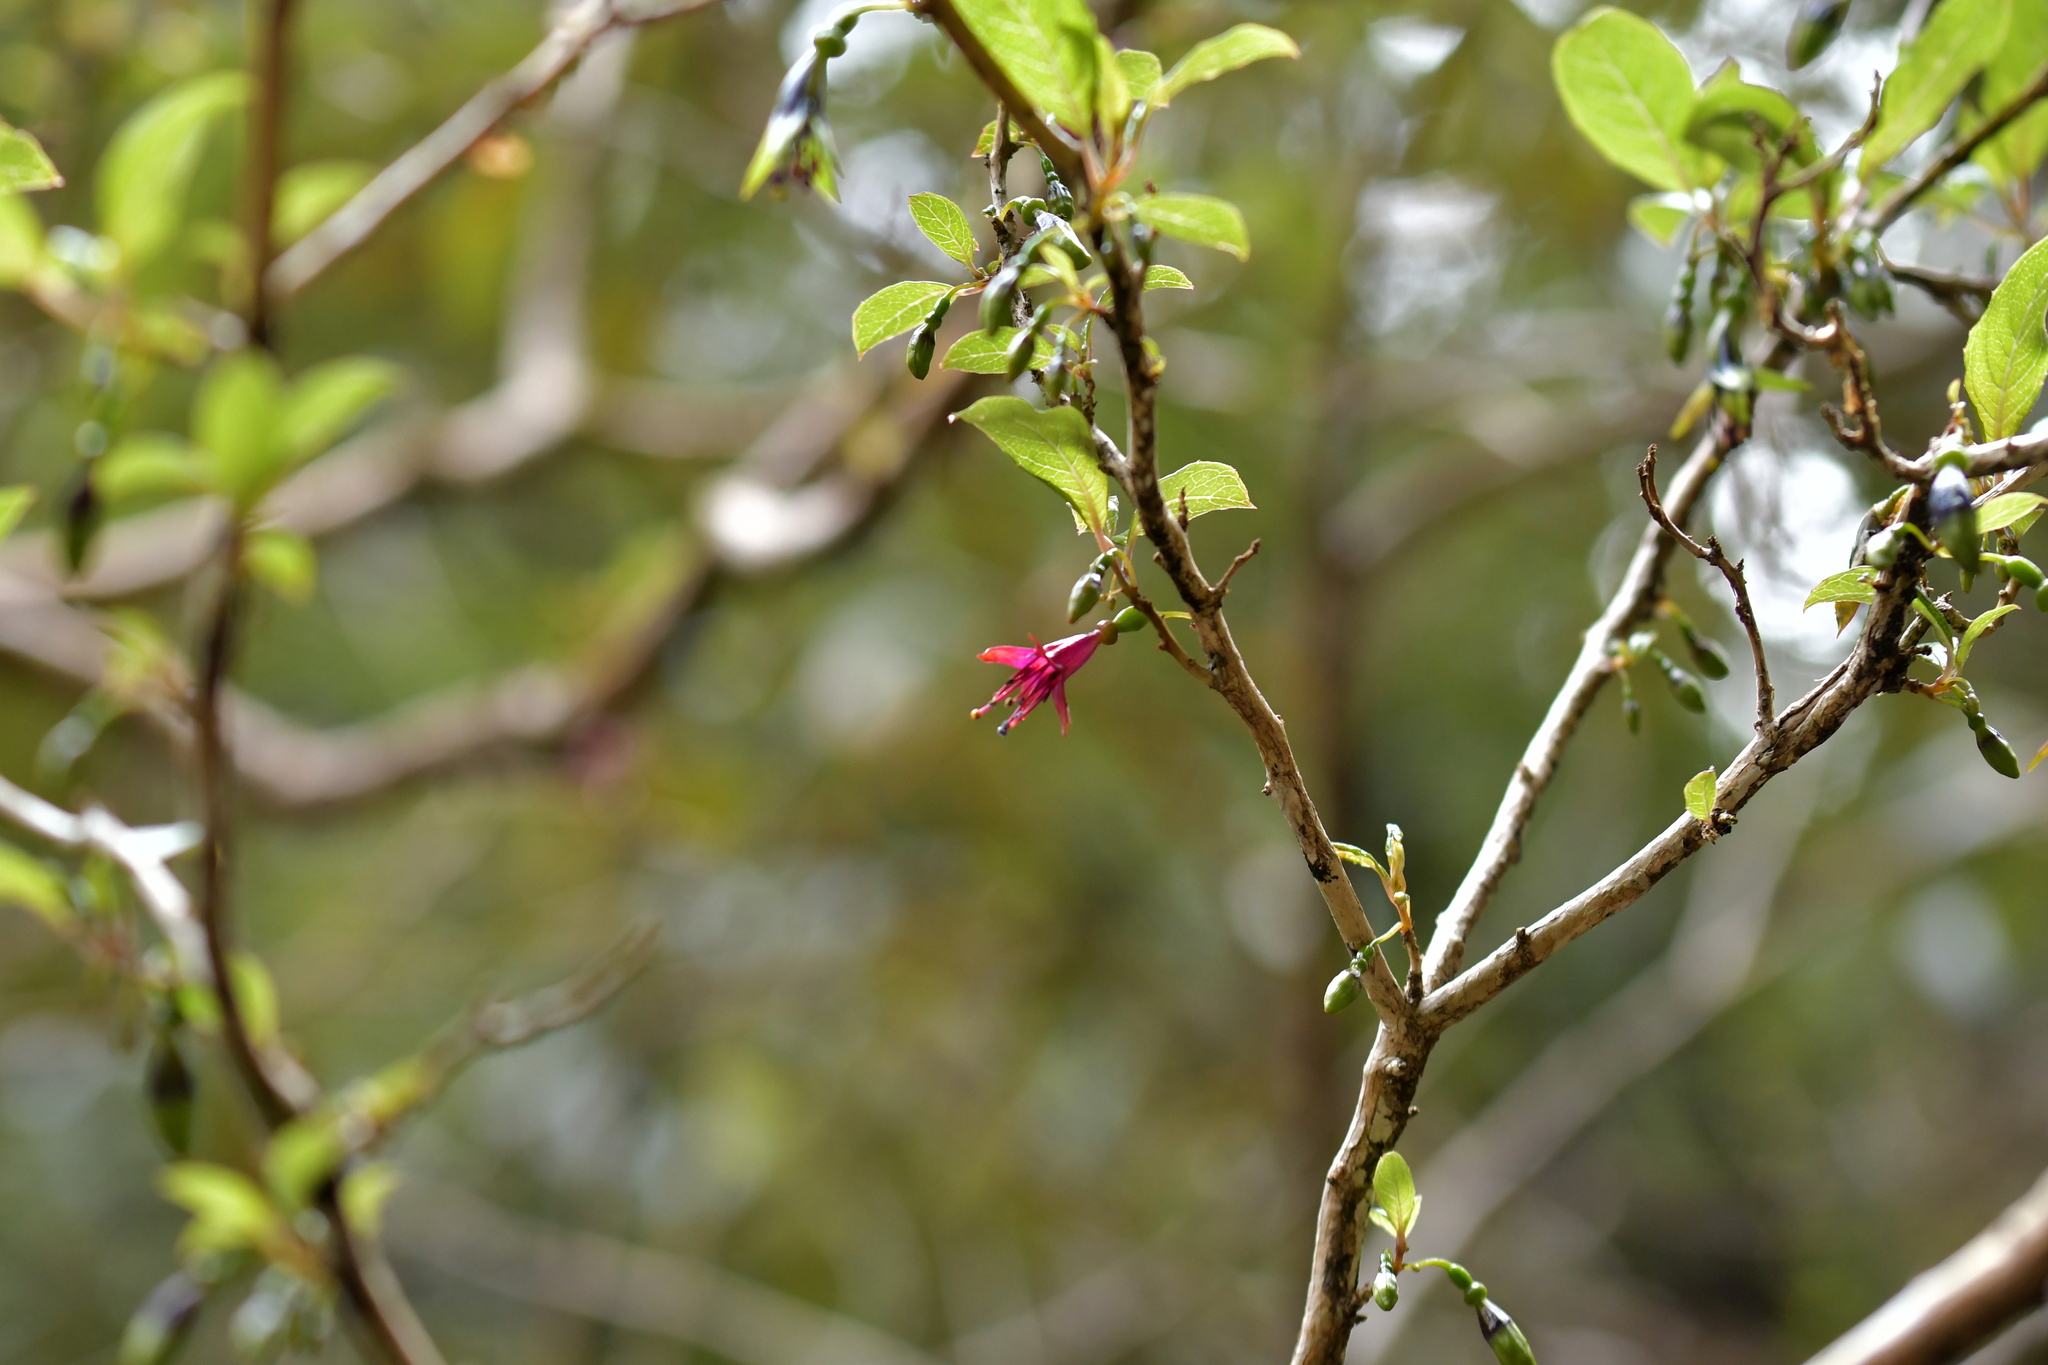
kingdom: Plantae
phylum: Tracheophyta
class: Magnoliopsida
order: Myrtales
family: Onagraceae
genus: Fuchsia
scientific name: Fuchsia excorticata
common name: Tree fuchsia
